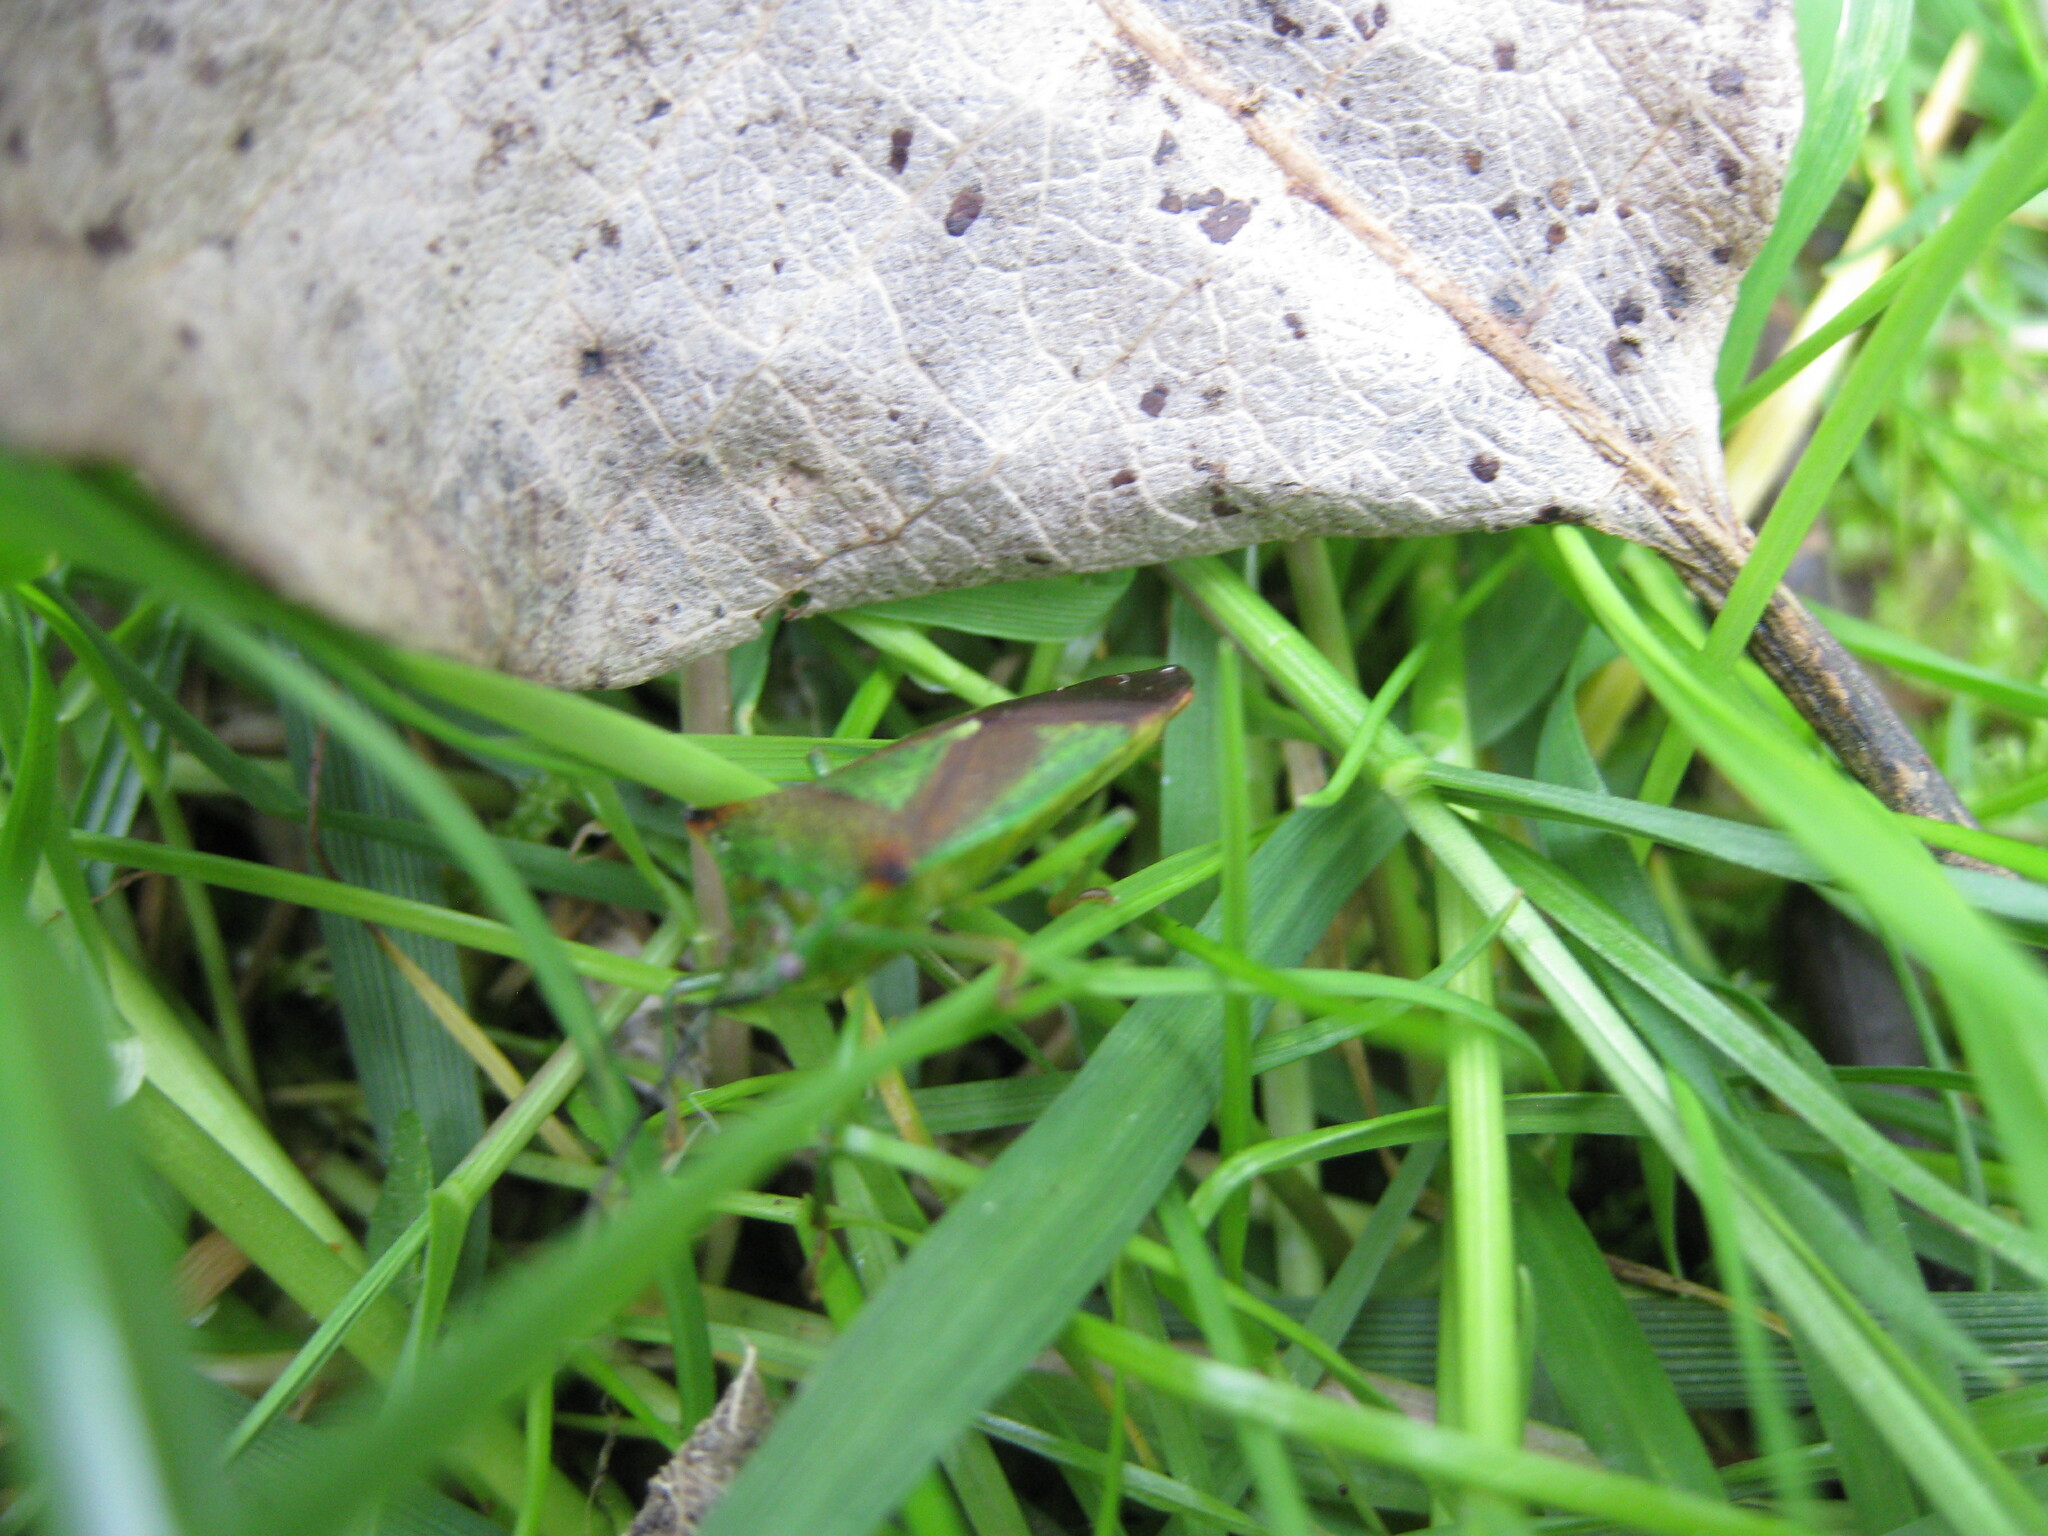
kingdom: Animalia
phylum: Arthropoda
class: Insecta
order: Hemiptera
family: Acanthosomatidae
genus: Acanthosoma
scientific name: Acanthosoma haemorrhoidale
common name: Hawthorn shieldbug
